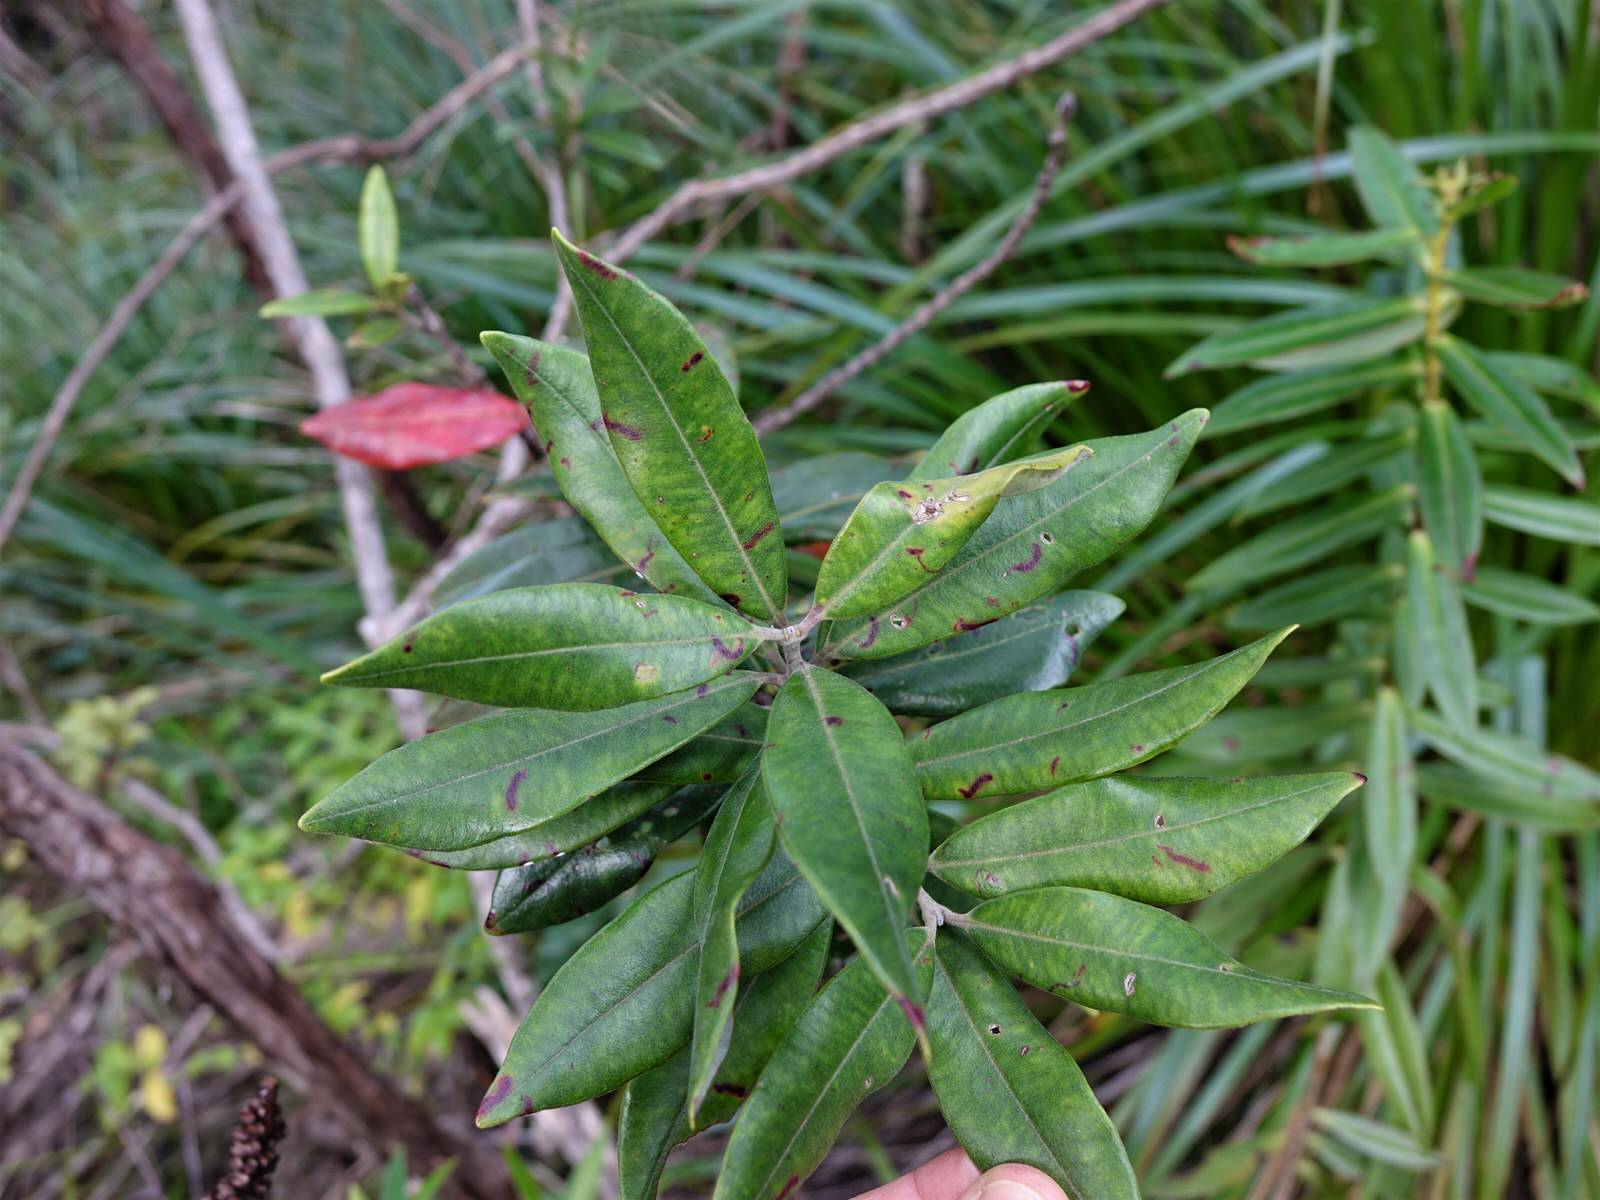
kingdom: Animalia
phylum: Arthropoda
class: Insecta
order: Hemiptera
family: Diaspididae
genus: Anoplaspis
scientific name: Anoplaspis metrosideri
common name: White rata-scale
